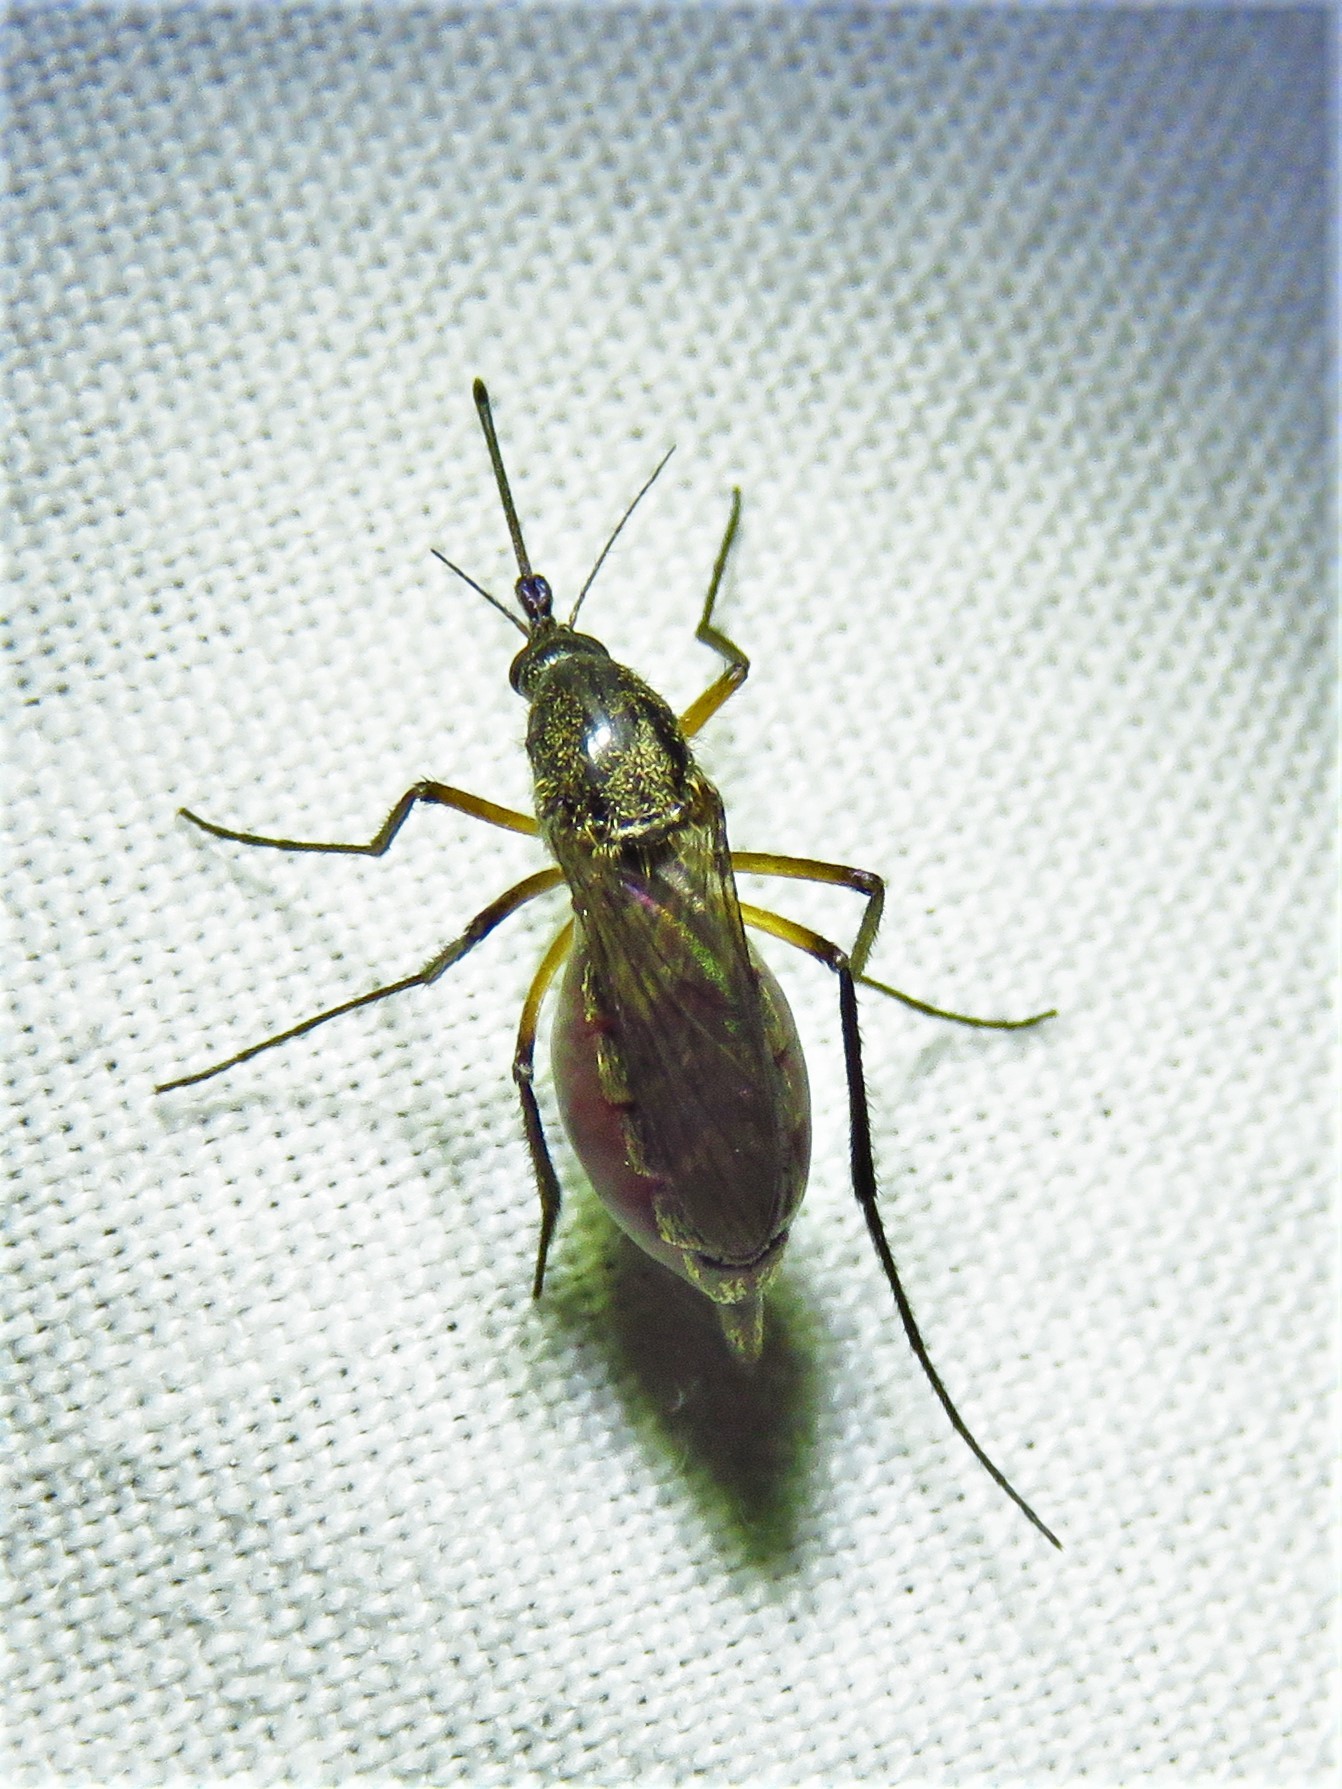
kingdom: Animalia
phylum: Arthropoda
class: Insecta
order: Diptera
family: Culicidae
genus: Psorophora
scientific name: Psorophora cyanescens
